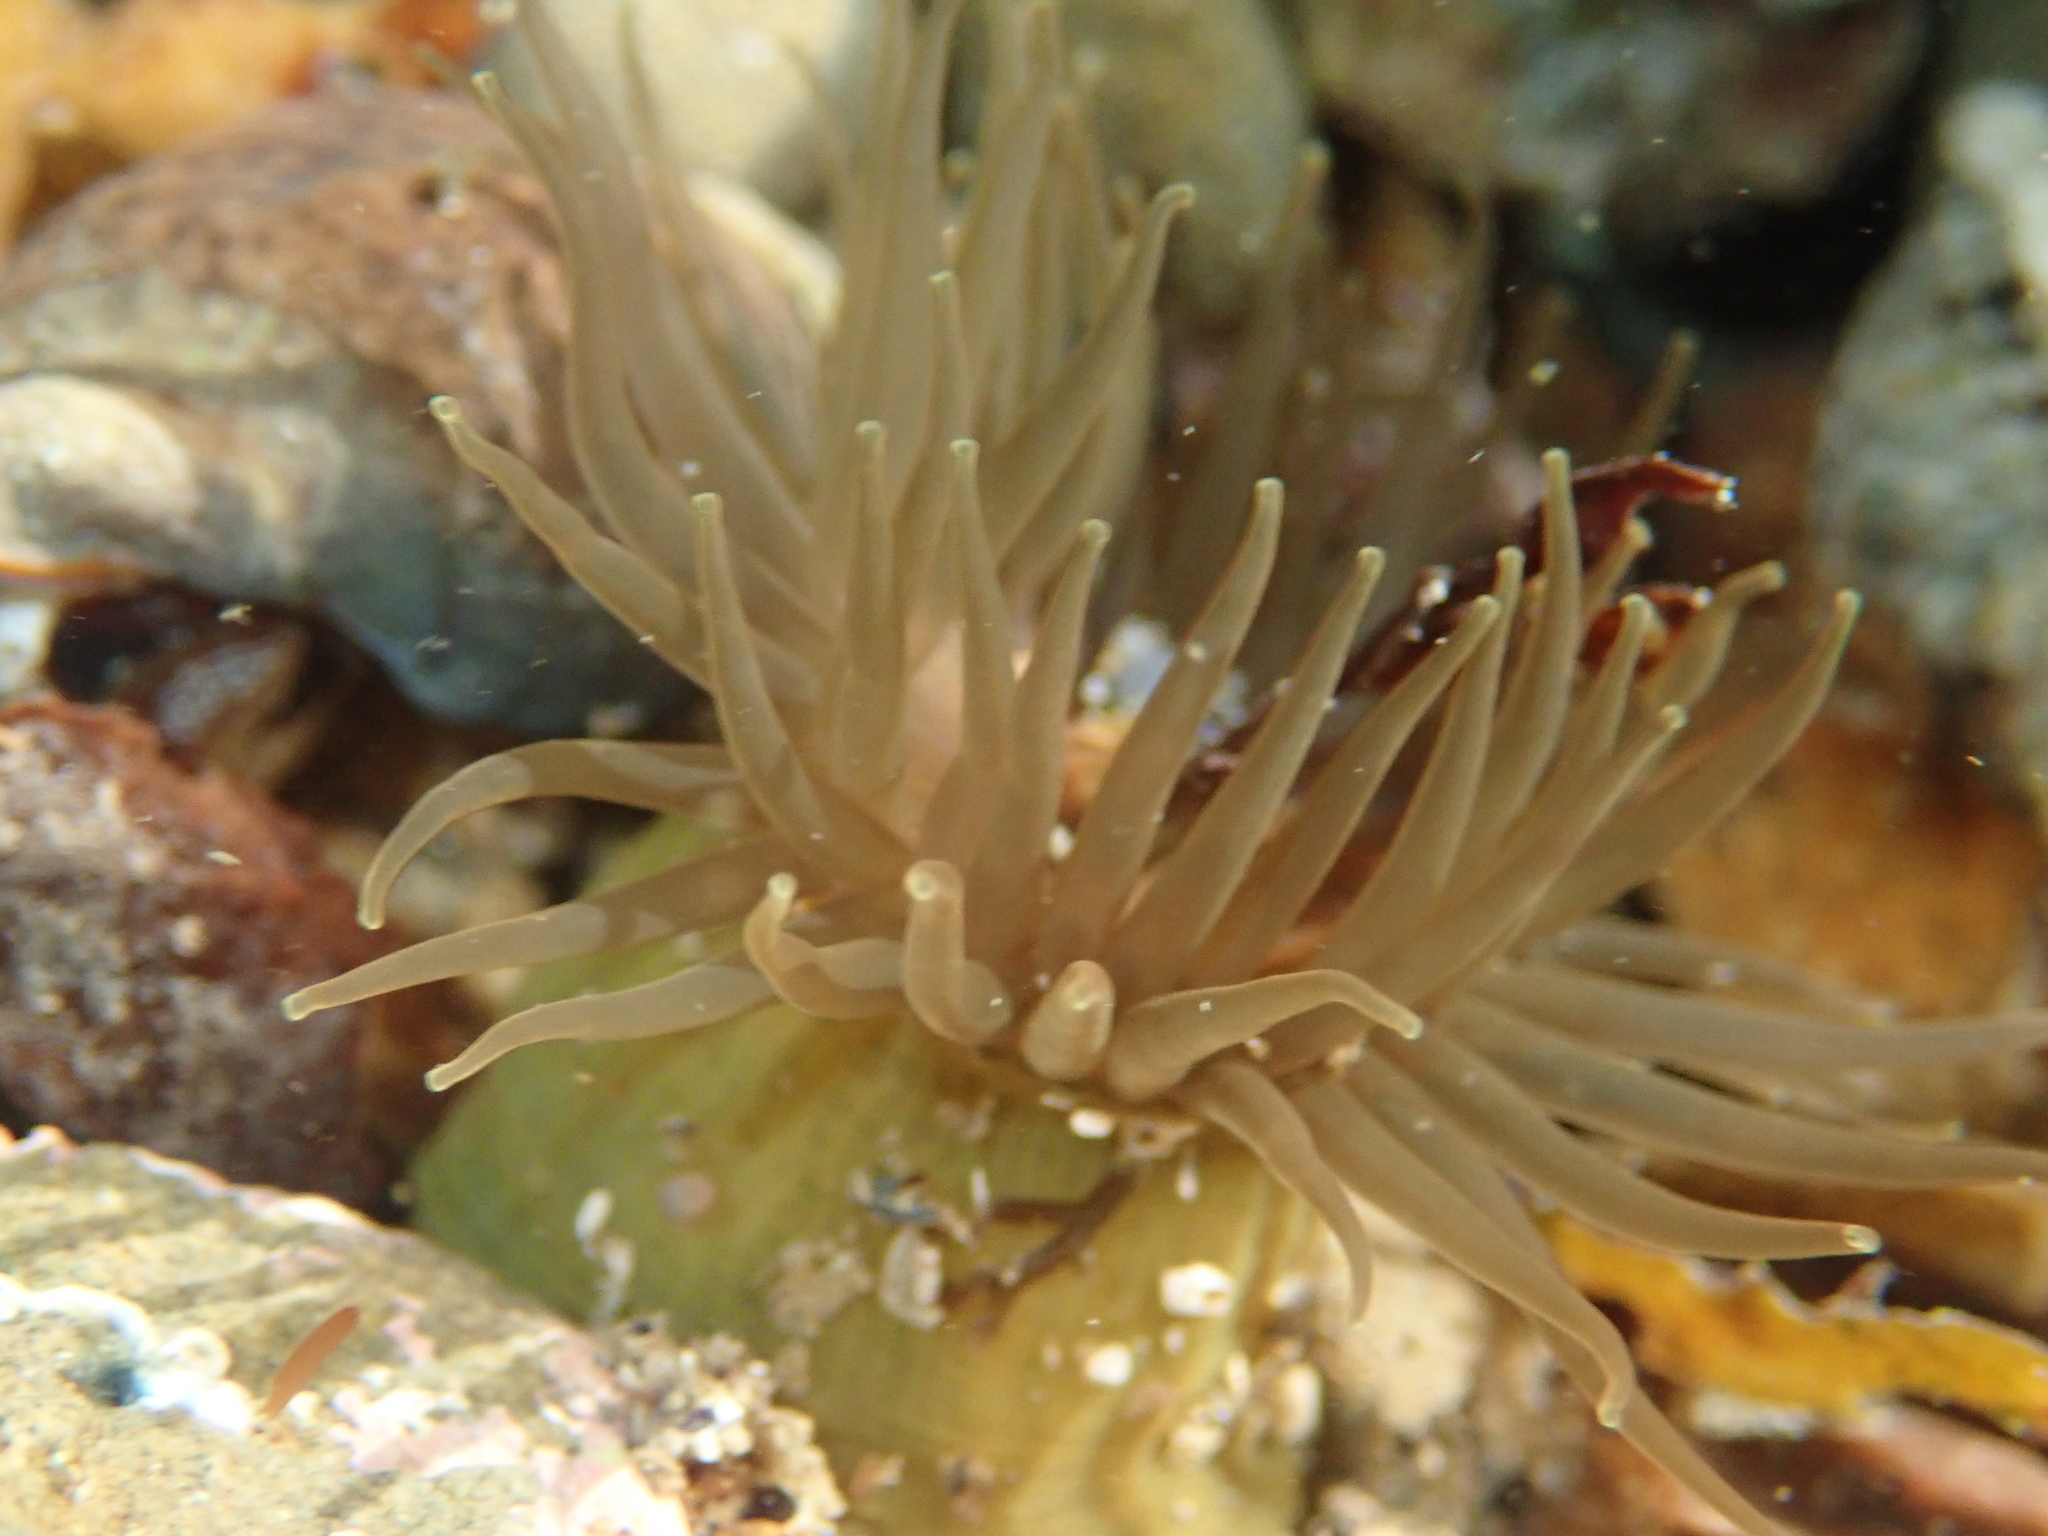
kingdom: Animalia
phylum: Cnidaria
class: Anthozoa
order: Actiniaria
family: Actiniidae
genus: Isactinia
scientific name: Isactinia olivacea
